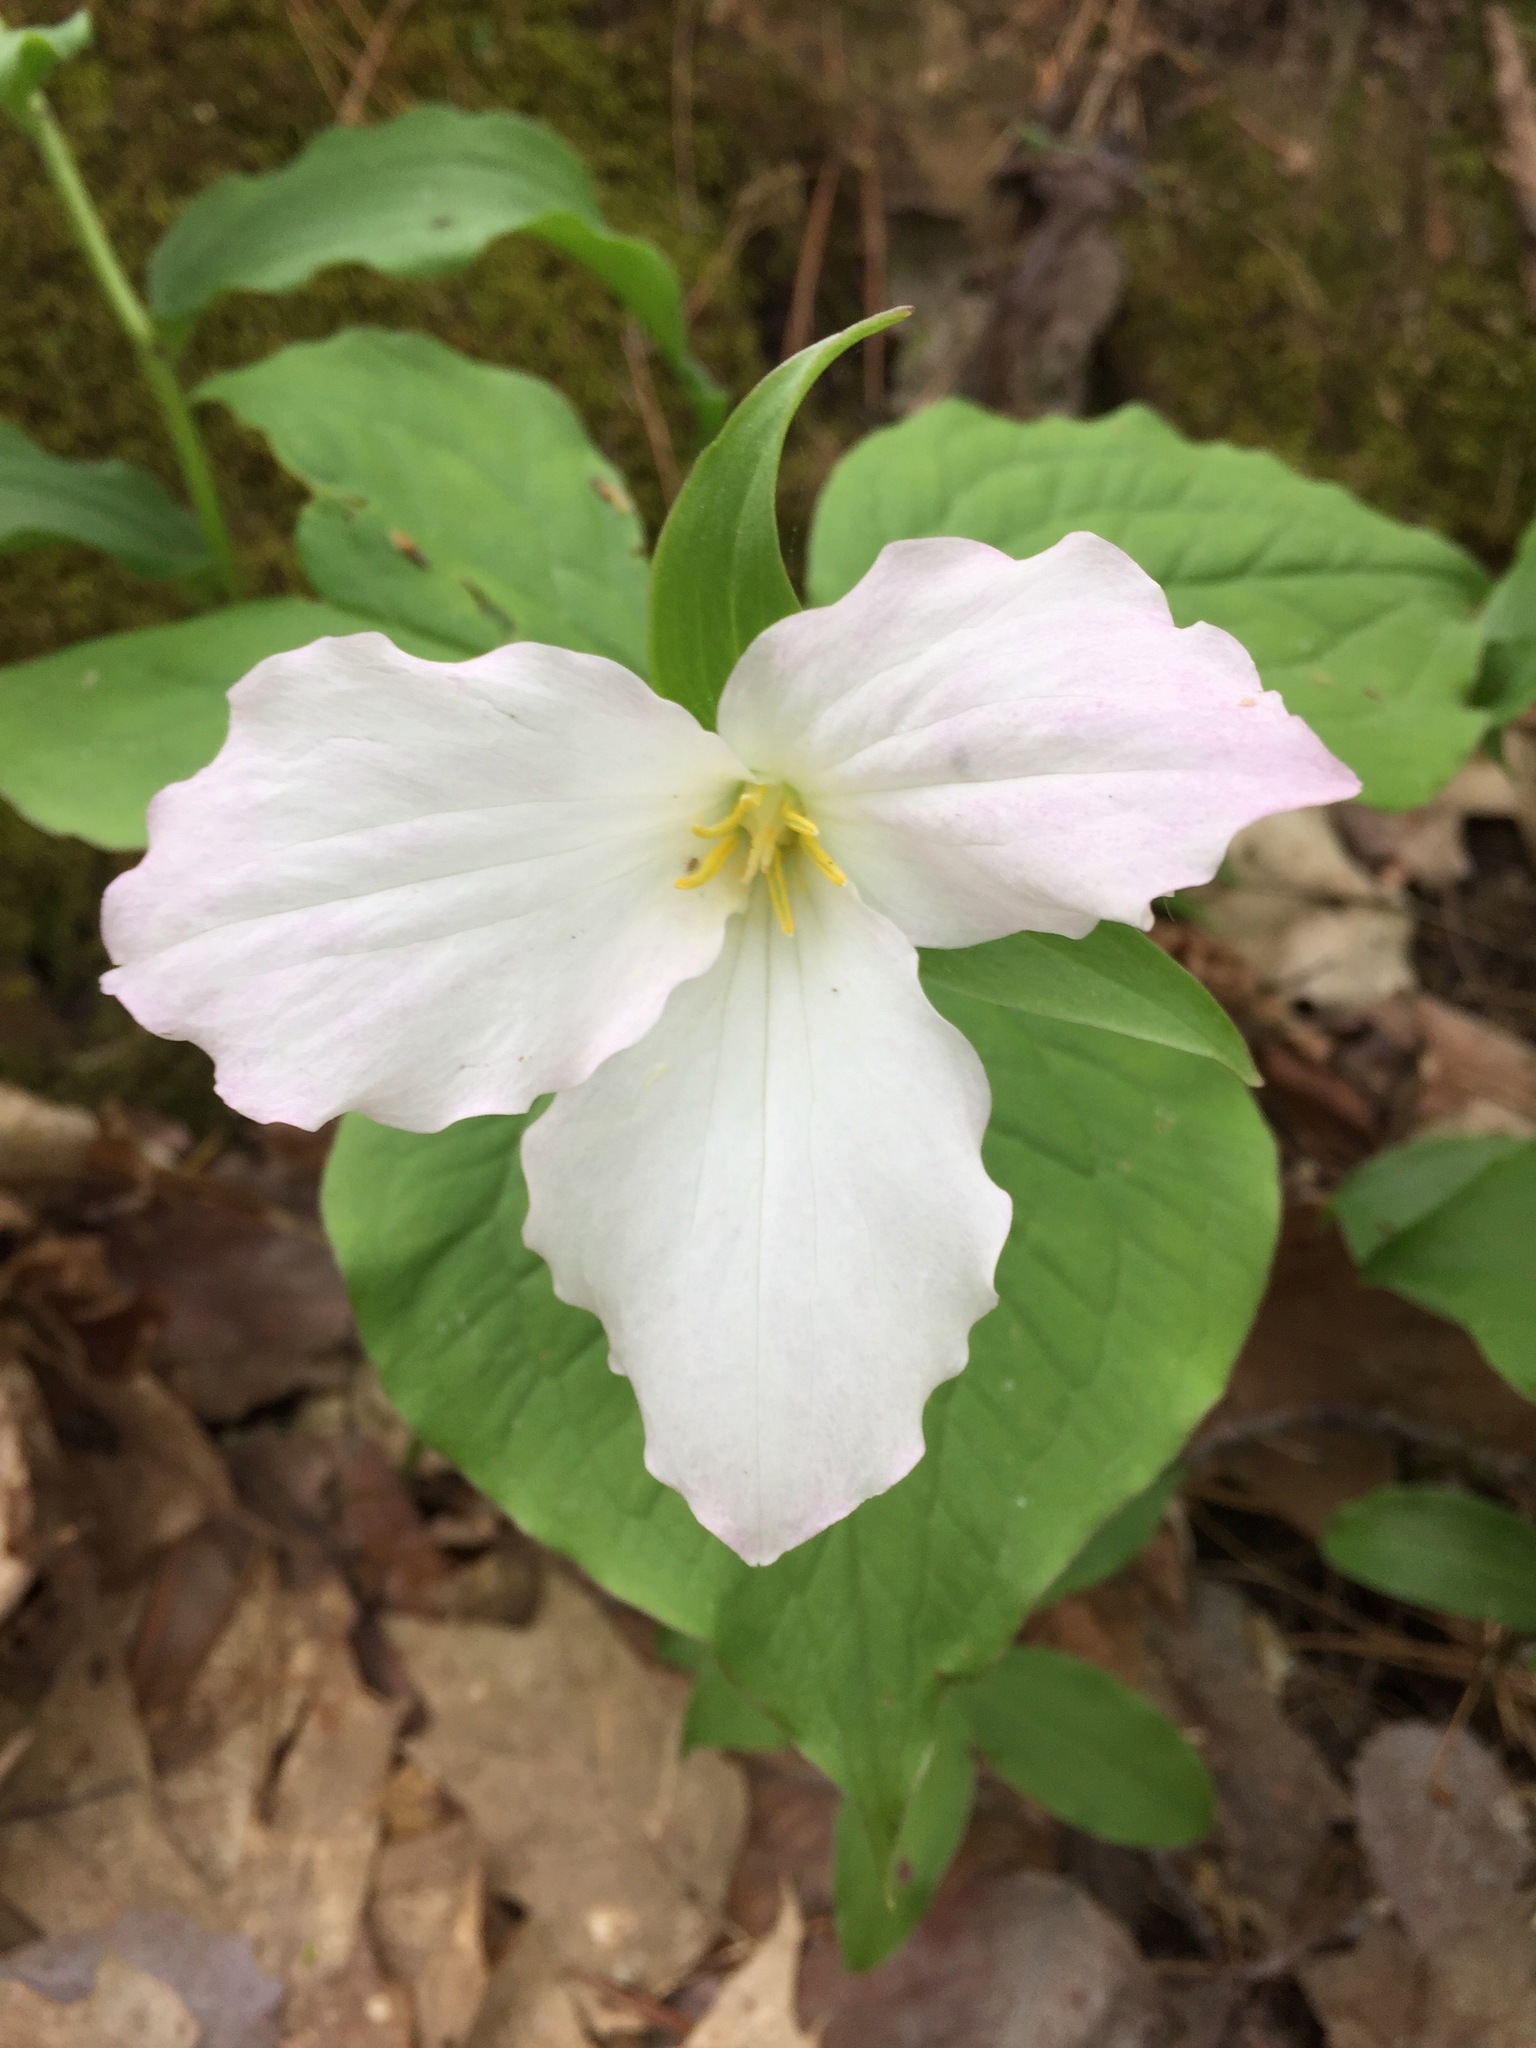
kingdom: Plantae
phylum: Tracheophyta
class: Liliopsida
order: Liliales
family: Melanthiaceae
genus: Trillium
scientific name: Trillium grandiflorum
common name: Great white trillium
